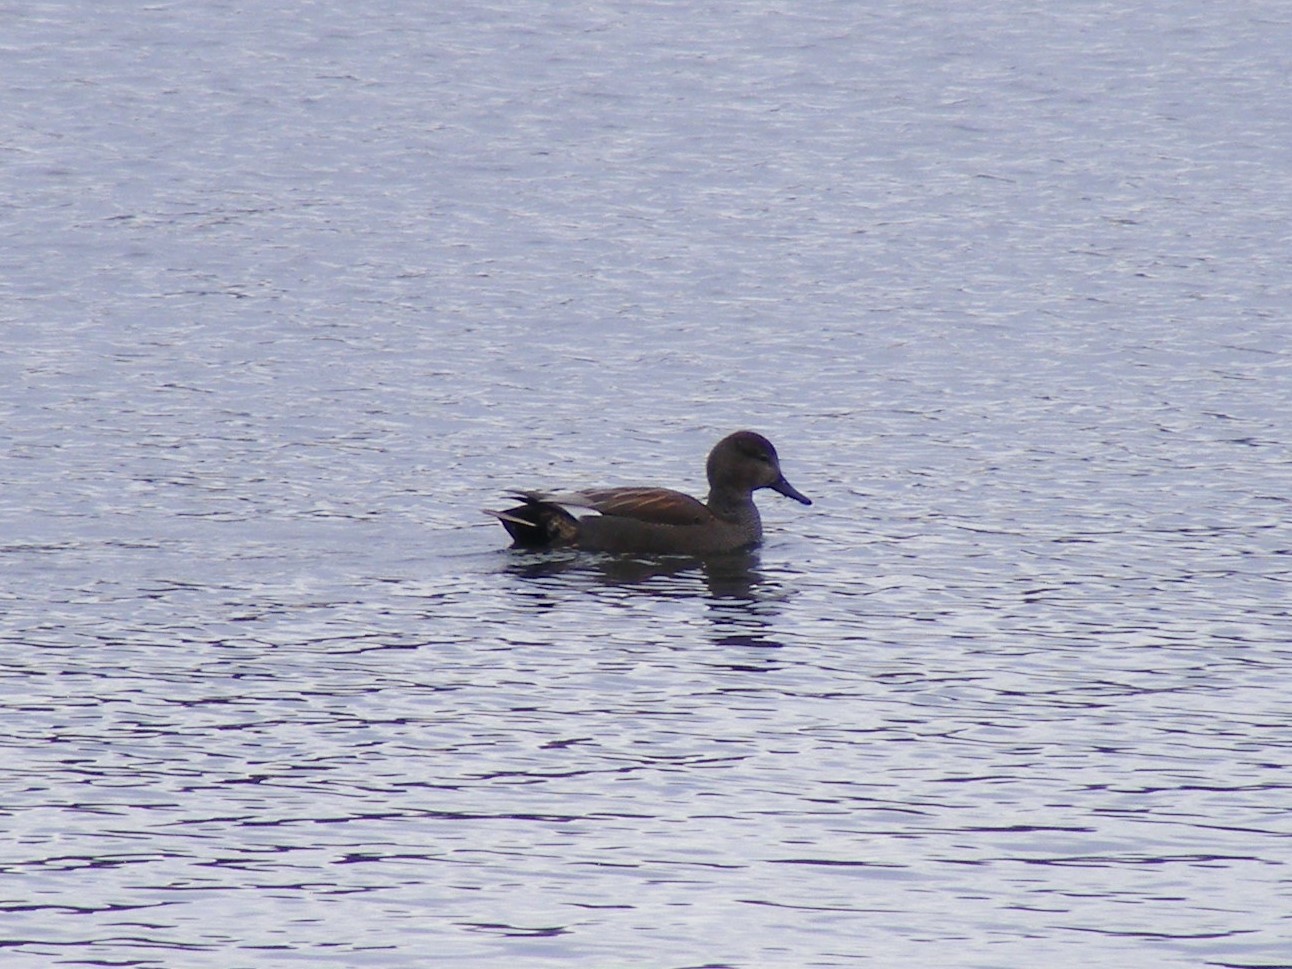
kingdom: Animalia
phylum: Chordata
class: Aves
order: Anseriformes
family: Anatidae
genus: Mareca
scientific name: Mareca strepera
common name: Gadwall
